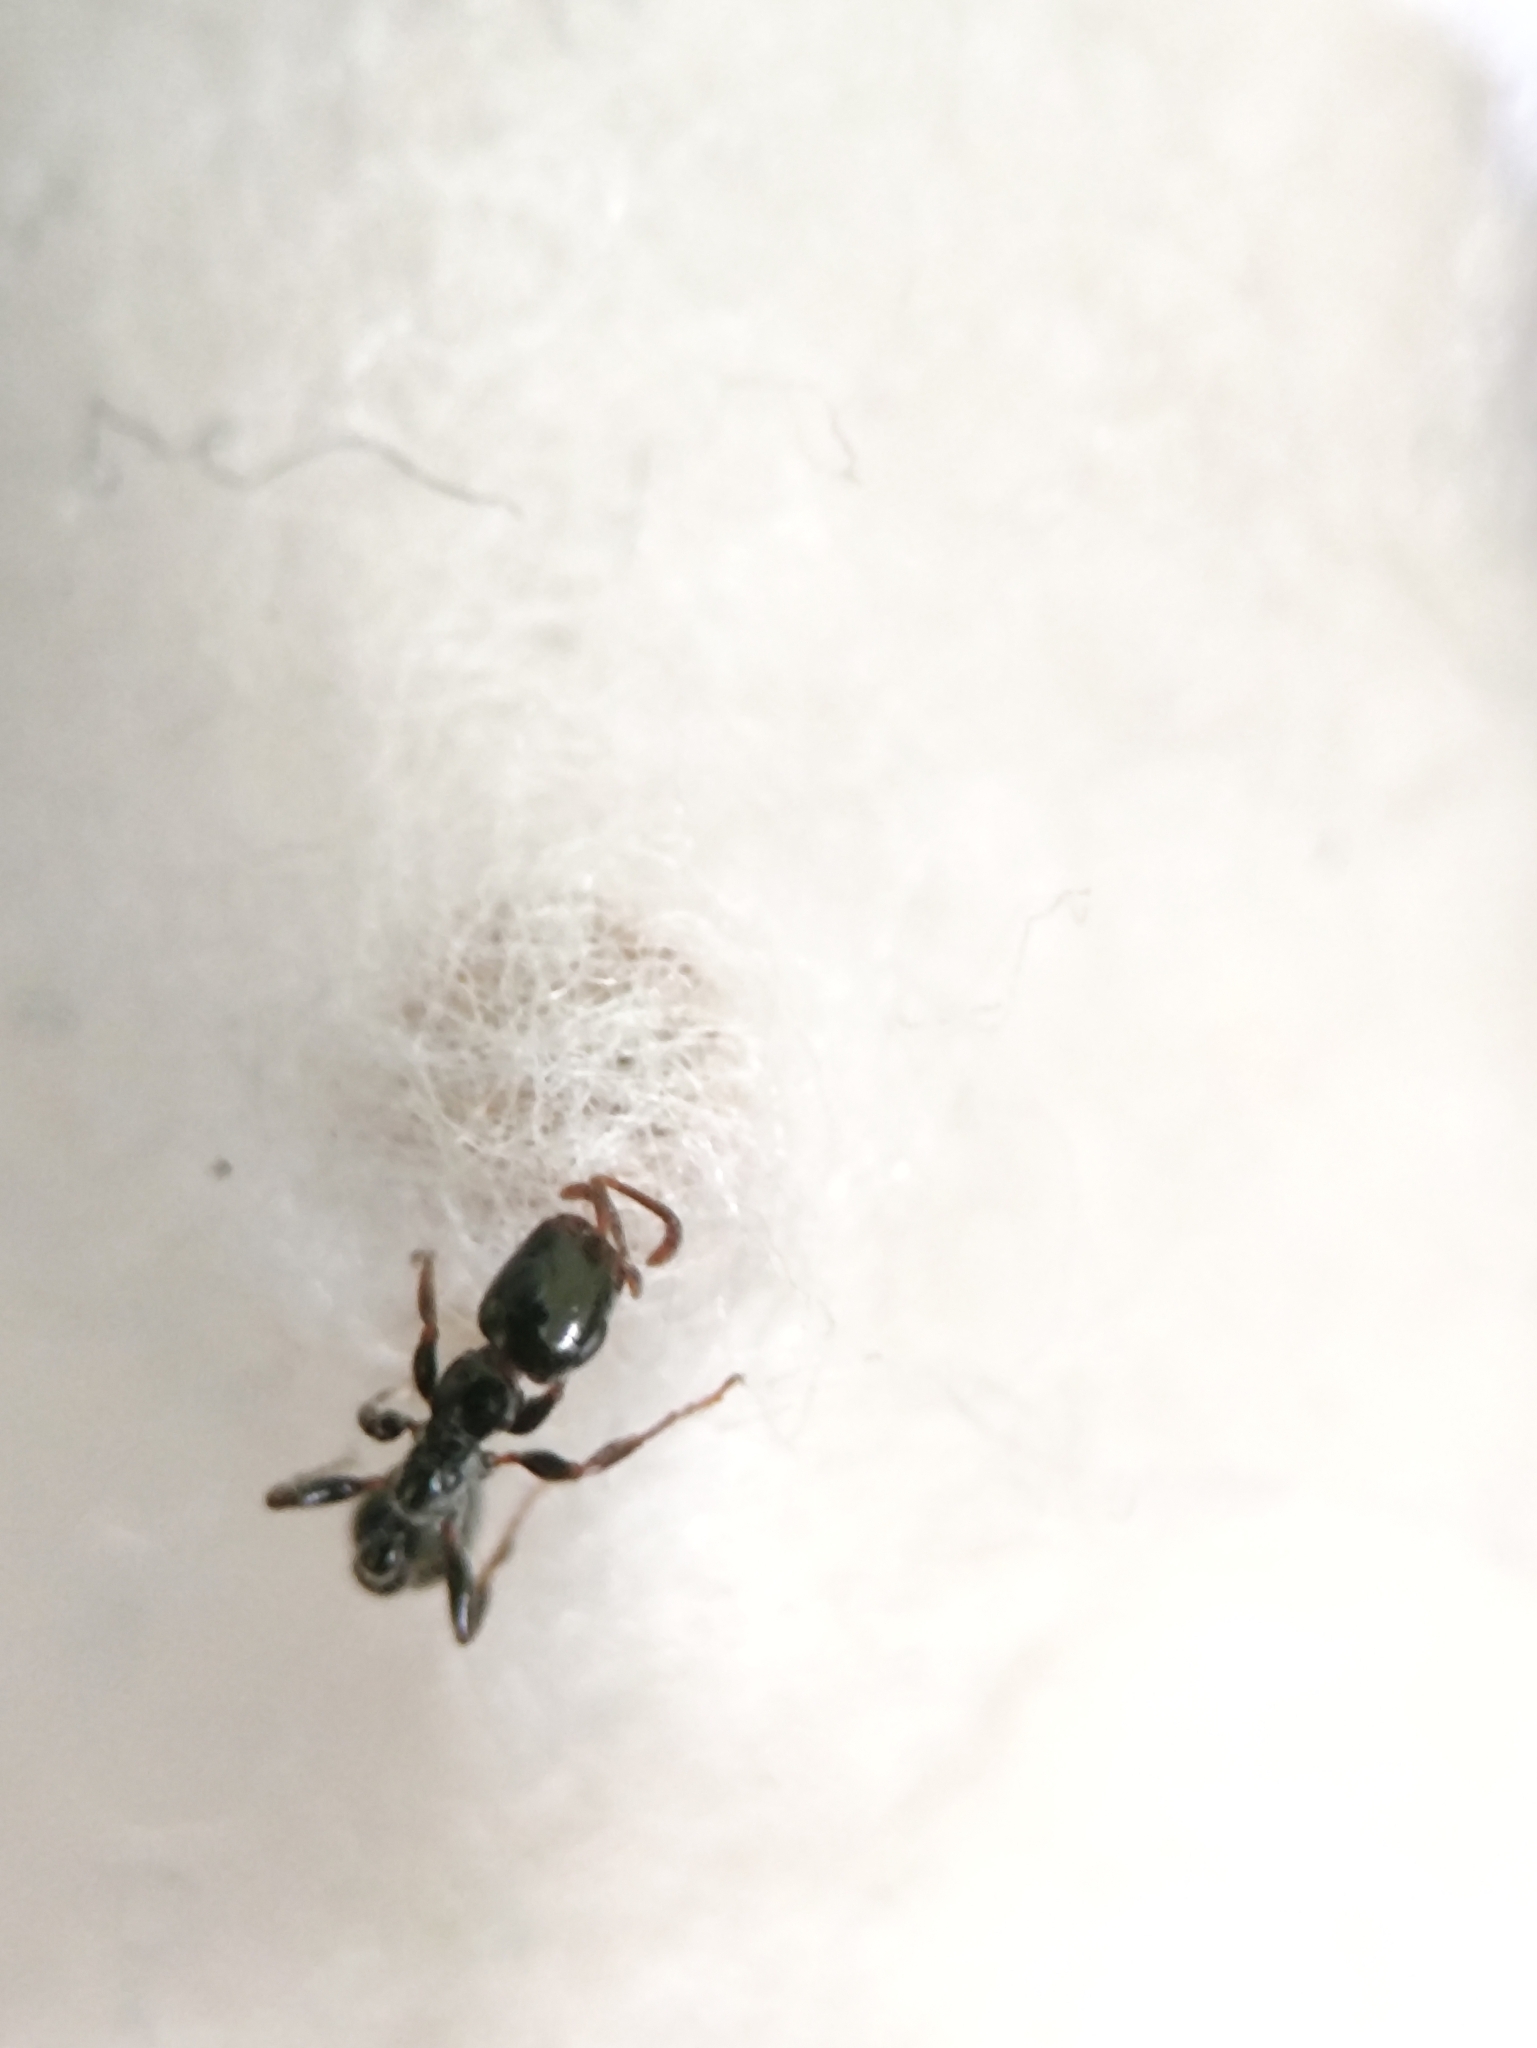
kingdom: Animalia
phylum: Arthropoda
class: Insecta
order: Hymenoptera
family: Formicidae
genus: Tetraponera
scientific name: Tetraponera allaborans
